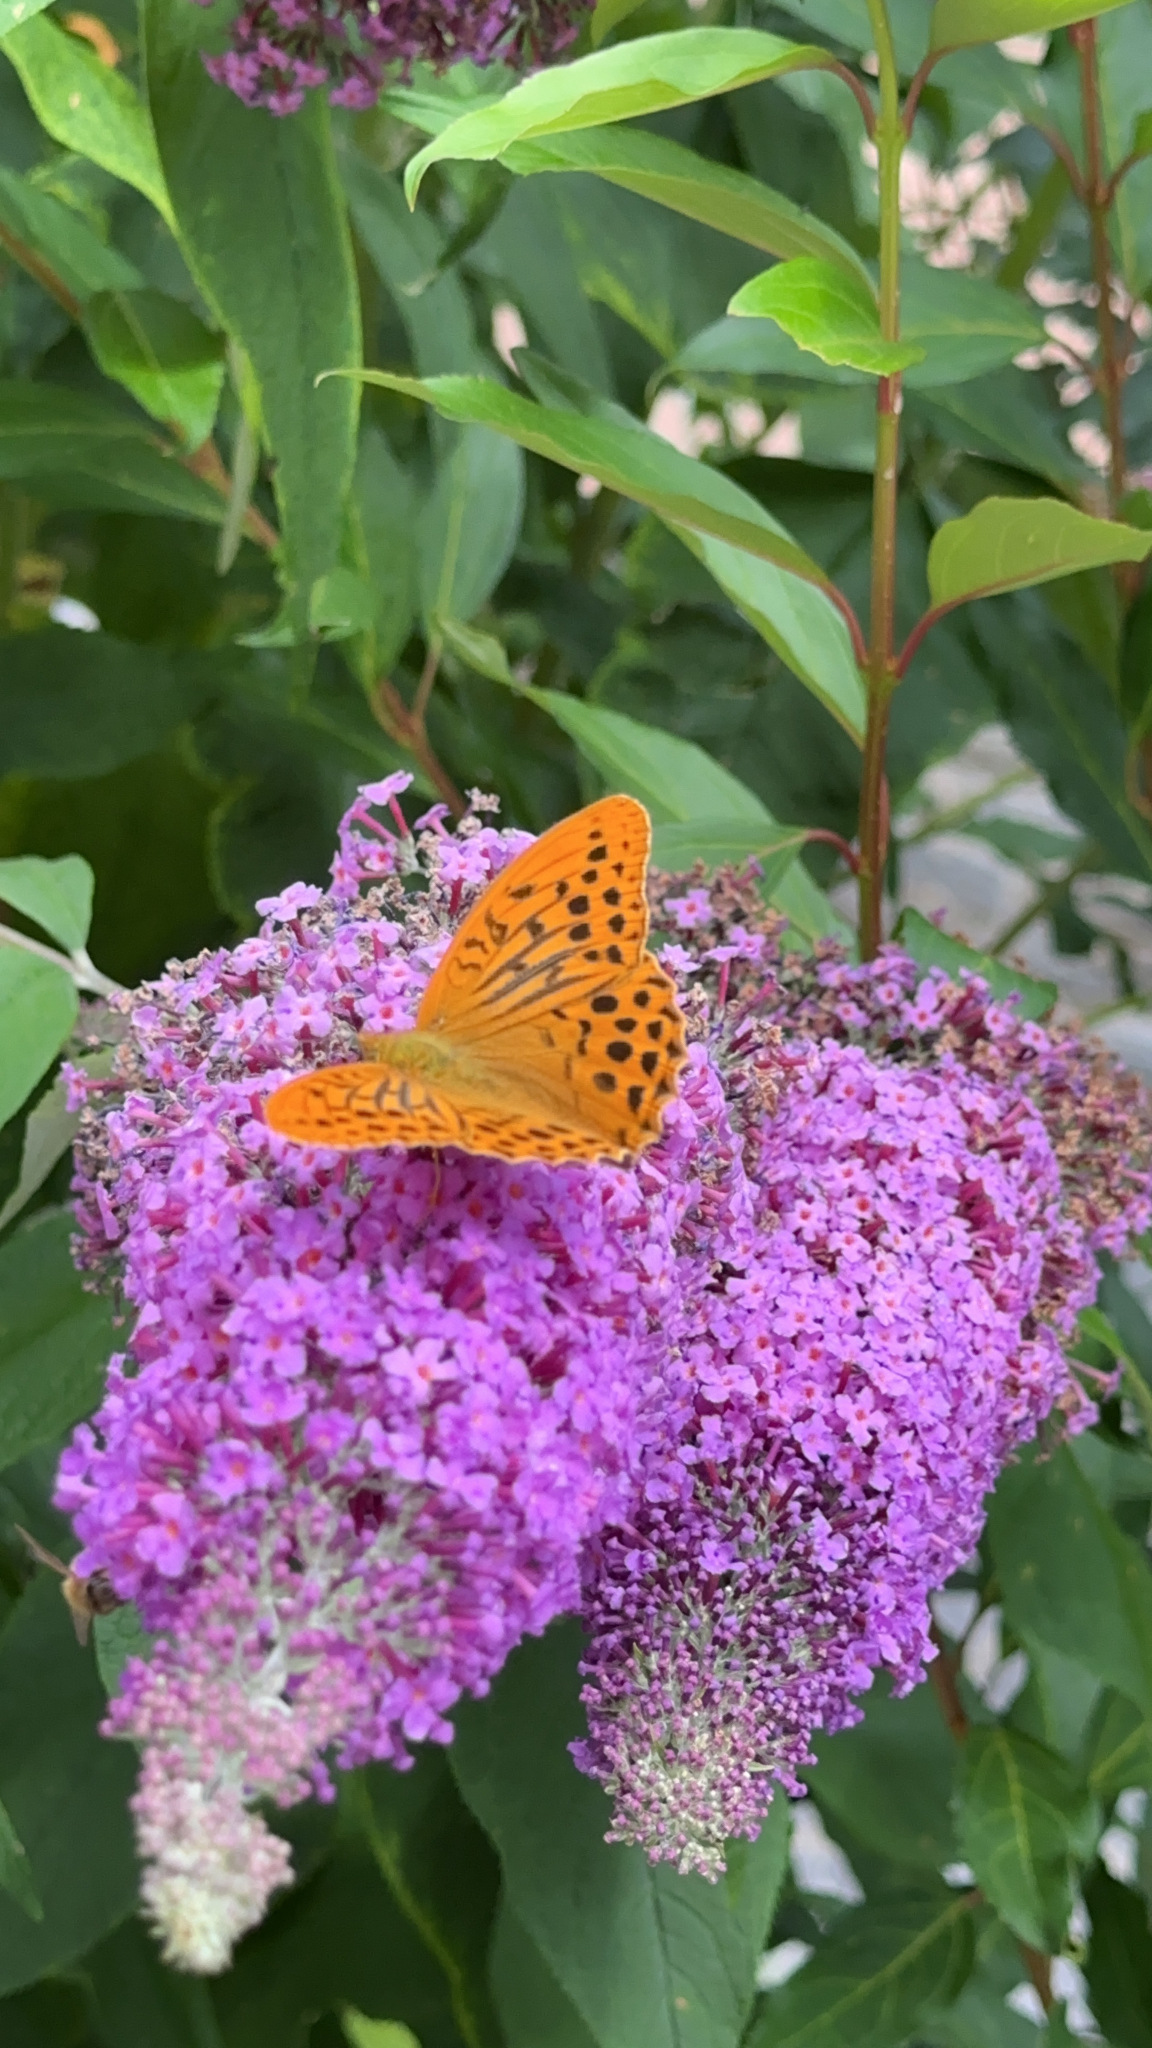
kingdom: Animalia
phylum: Arthropoda
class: Insecta
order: Lepidoptera
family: Nymphalidae
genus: Argynnis
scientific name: Argynnis paphia
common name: Silver-washed fritillary
